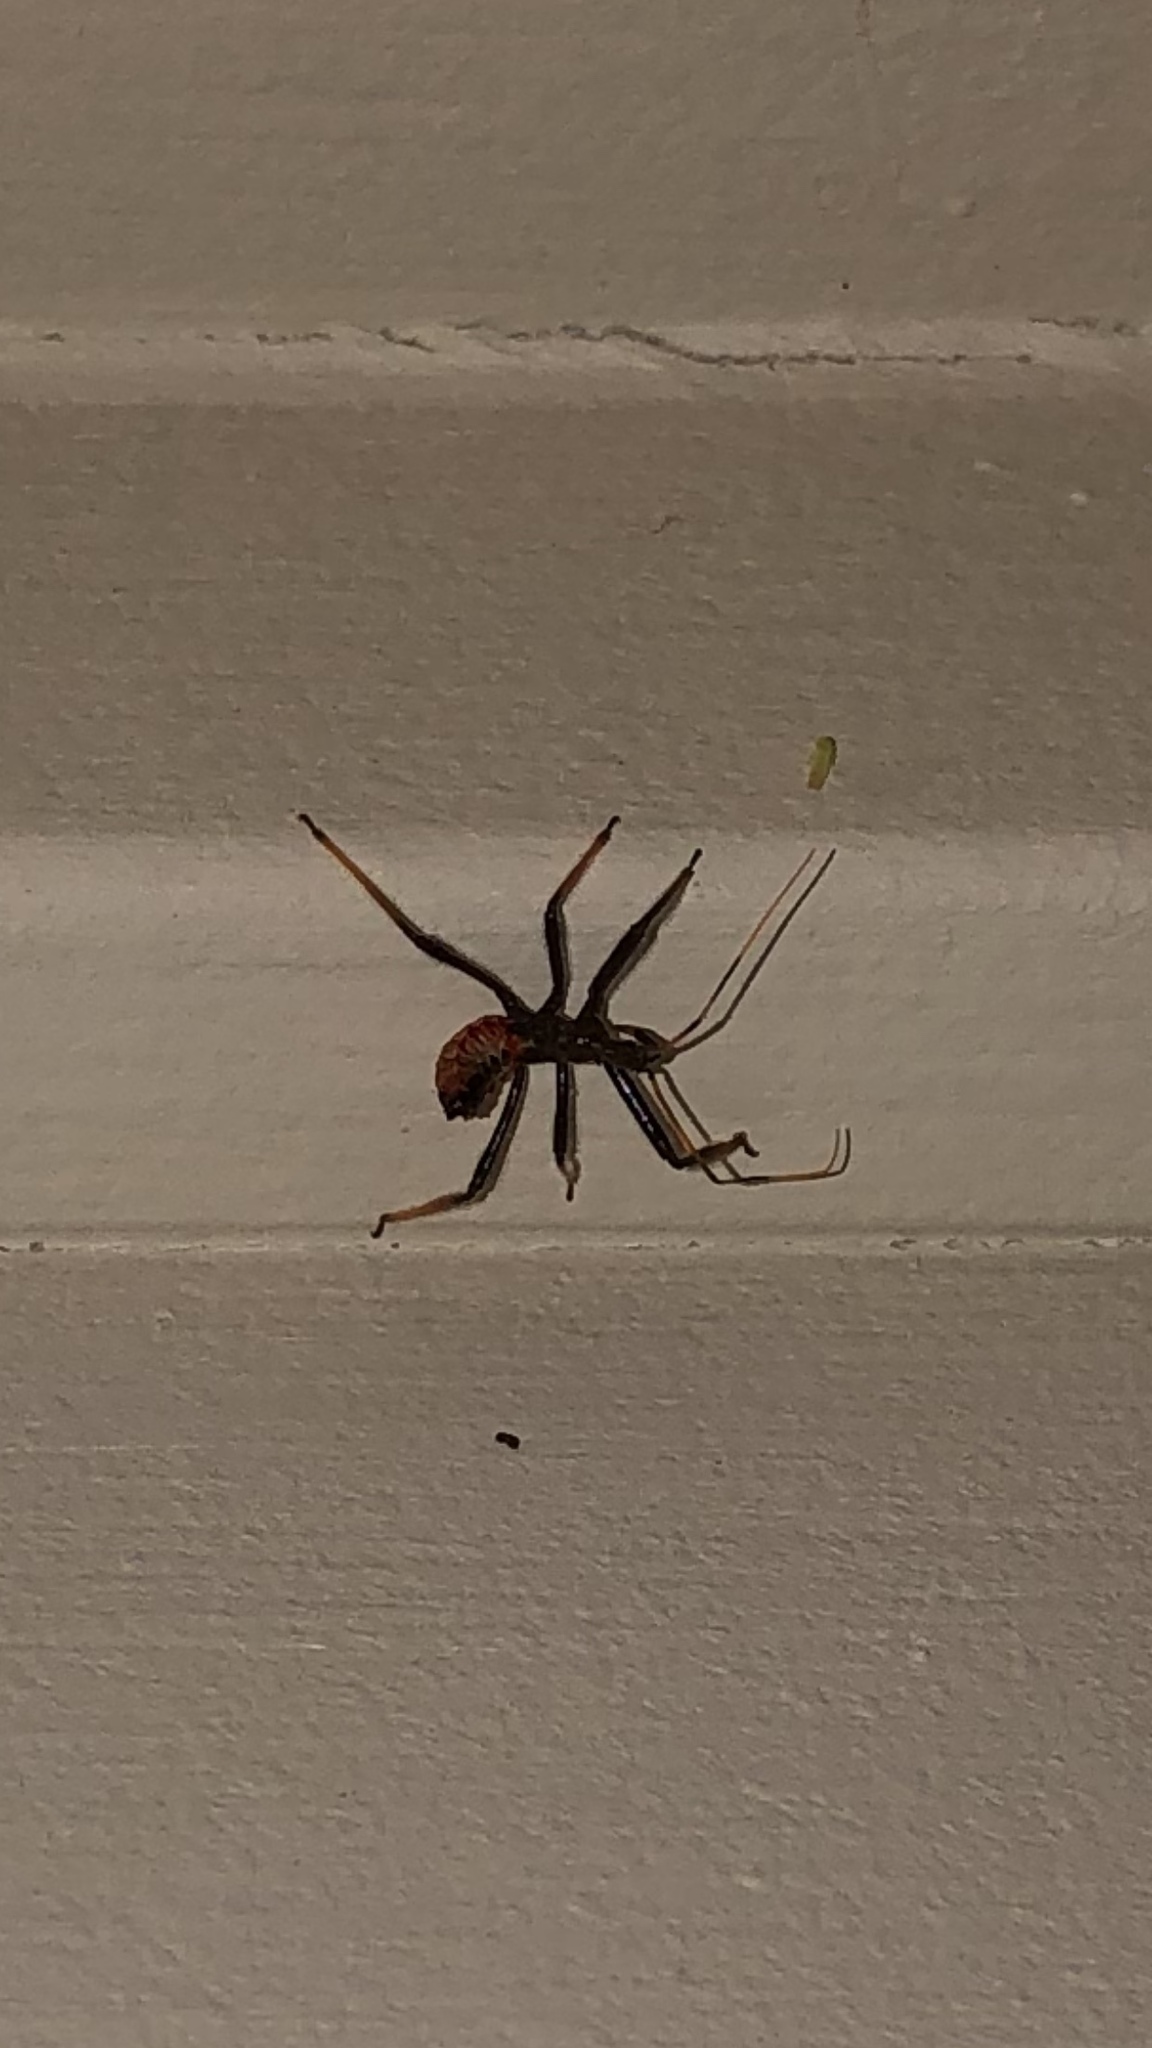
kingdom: Animalia
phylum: Arthropoda
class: Insecta
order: Hemiptera
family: Reduviidae
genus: Arilus
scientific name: Arilus cristatus
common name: North american wheel bug
